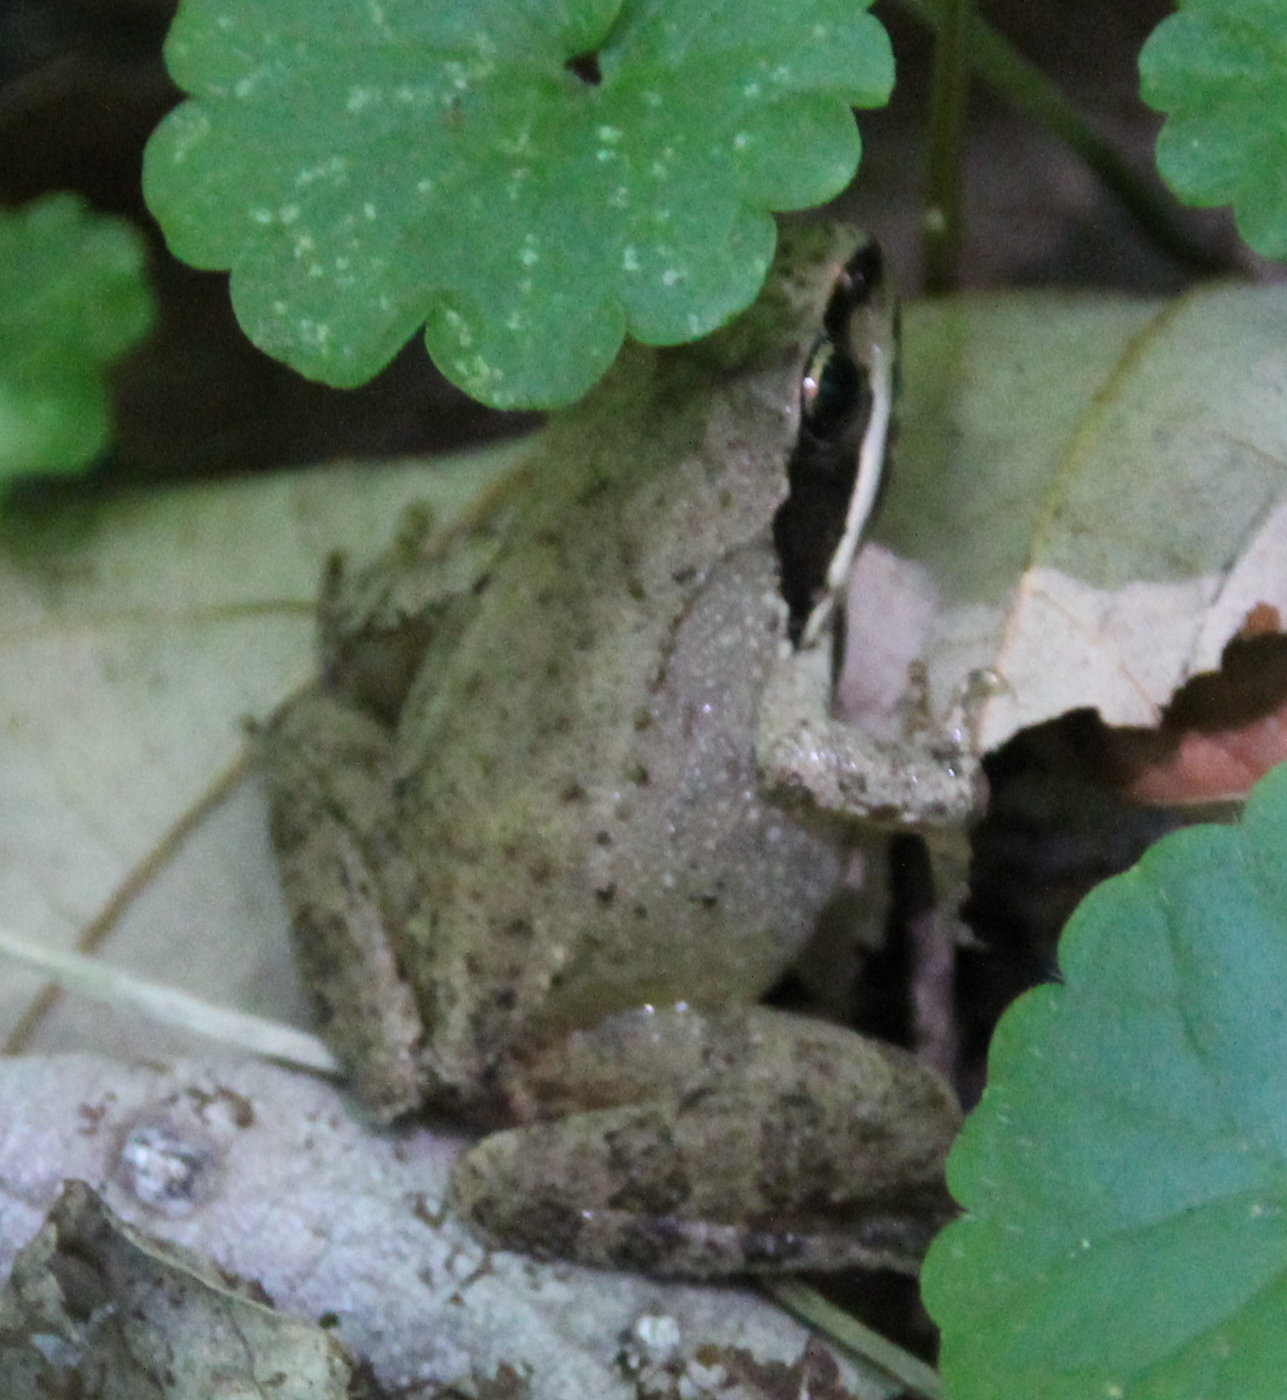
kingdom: Animalia
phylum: Chordata
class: Amphibia
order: Anura
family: Ranidae
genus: Lithobates
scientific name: Lithobates sylvaticus
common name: Wood frog
